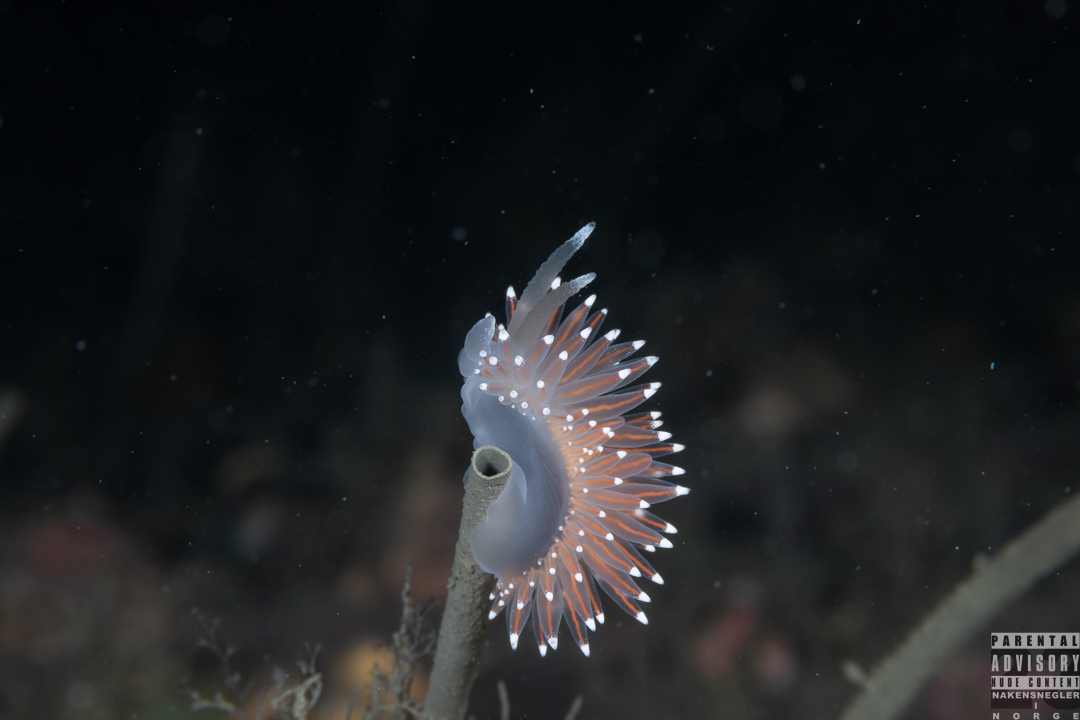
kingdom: Animalia
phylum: Mollusca
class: Gastropoda
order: Nudibranchia
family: Coryphellidae
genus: Coryphella
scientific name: Coryphella nobilis
